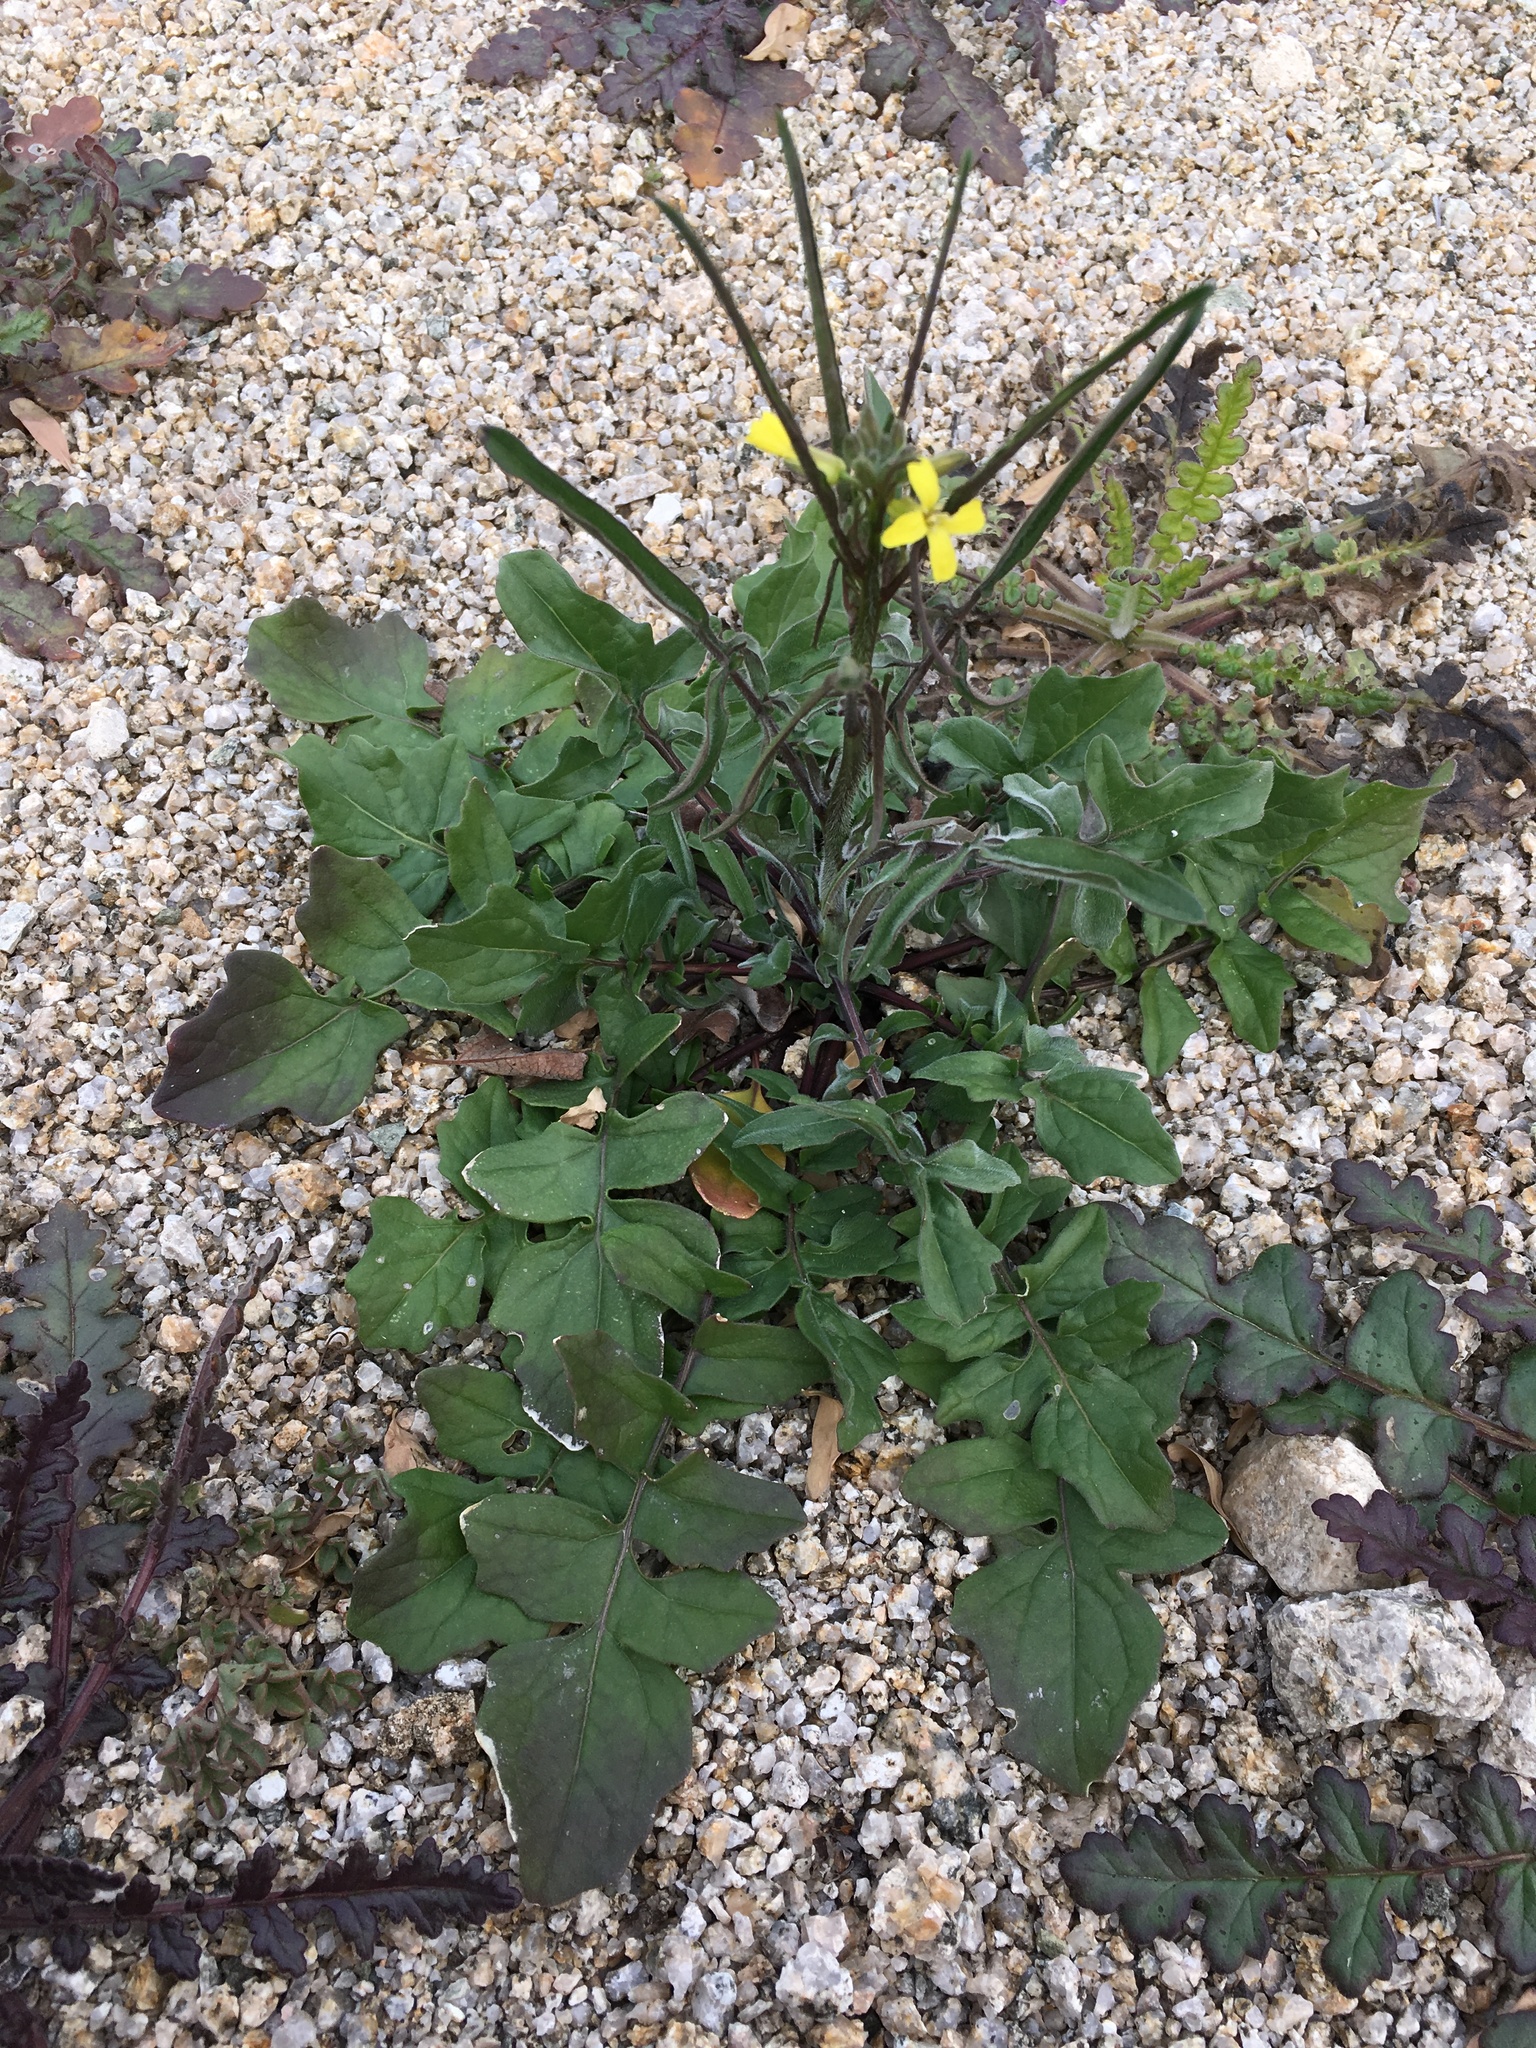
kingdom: Plantae
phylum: Tracheophyta
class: Magnoliopsida
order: Brassicales
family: Brassicaceae
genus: Sisymbrium
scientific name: Sisymbrium orientale
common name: Eastern rocket
